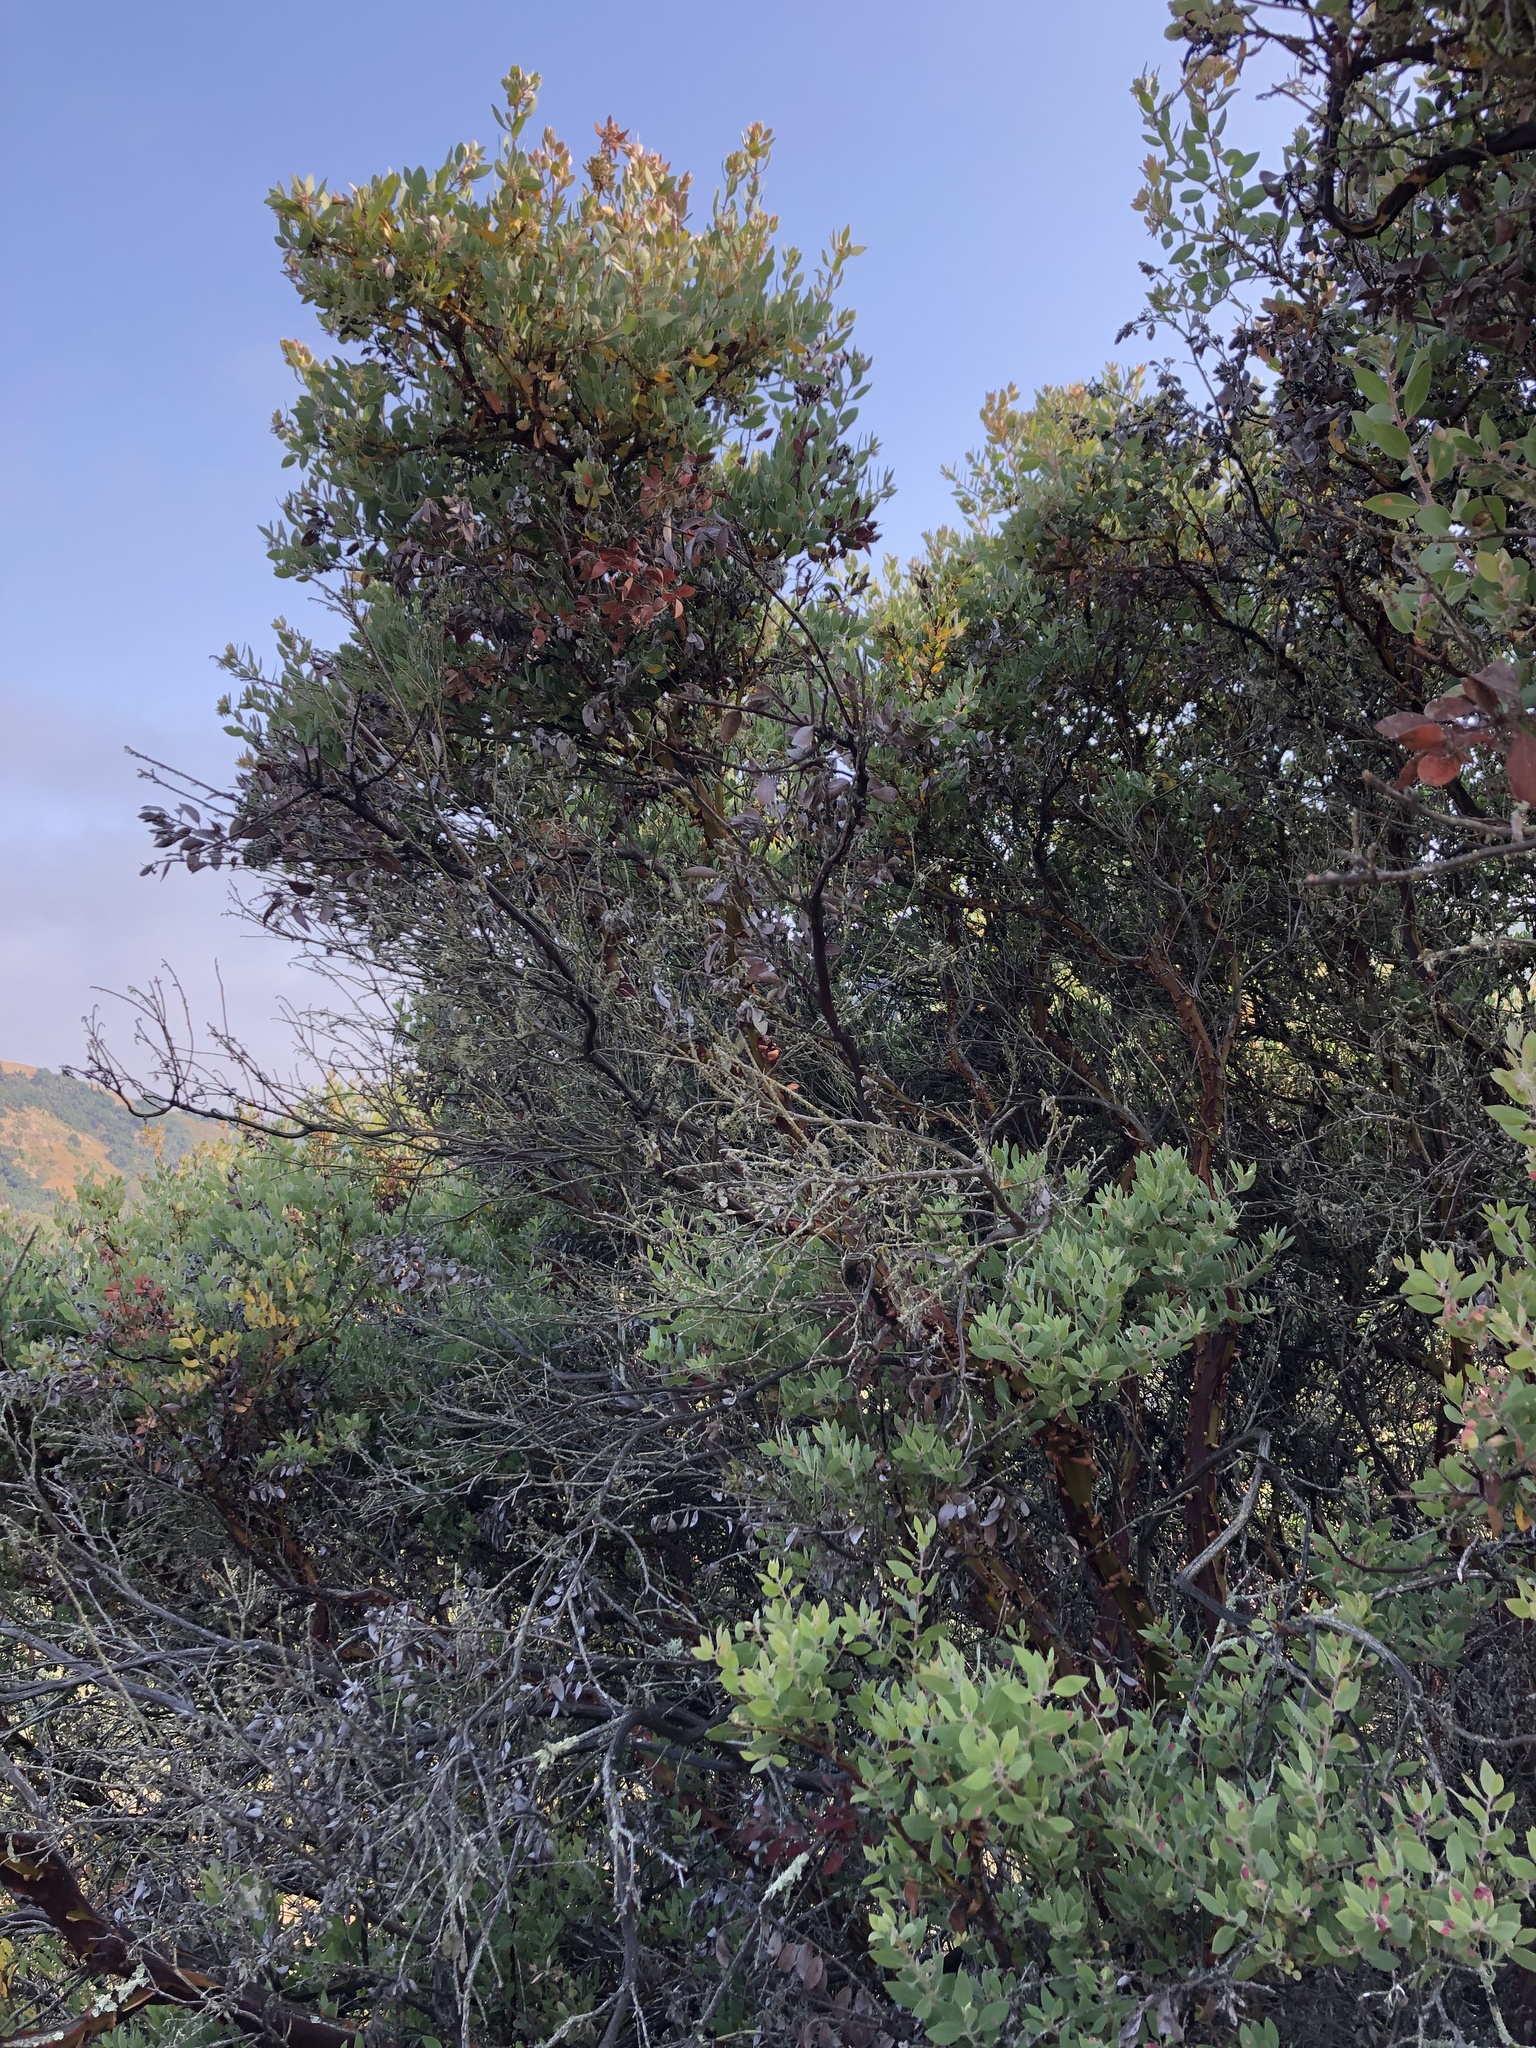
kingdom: Plantae
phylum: Tracheophyta
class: Magnoliopsida
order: Ericales
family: Ericaceae
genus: Arctostaphylos
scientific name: Arctostaphylos pilosula
